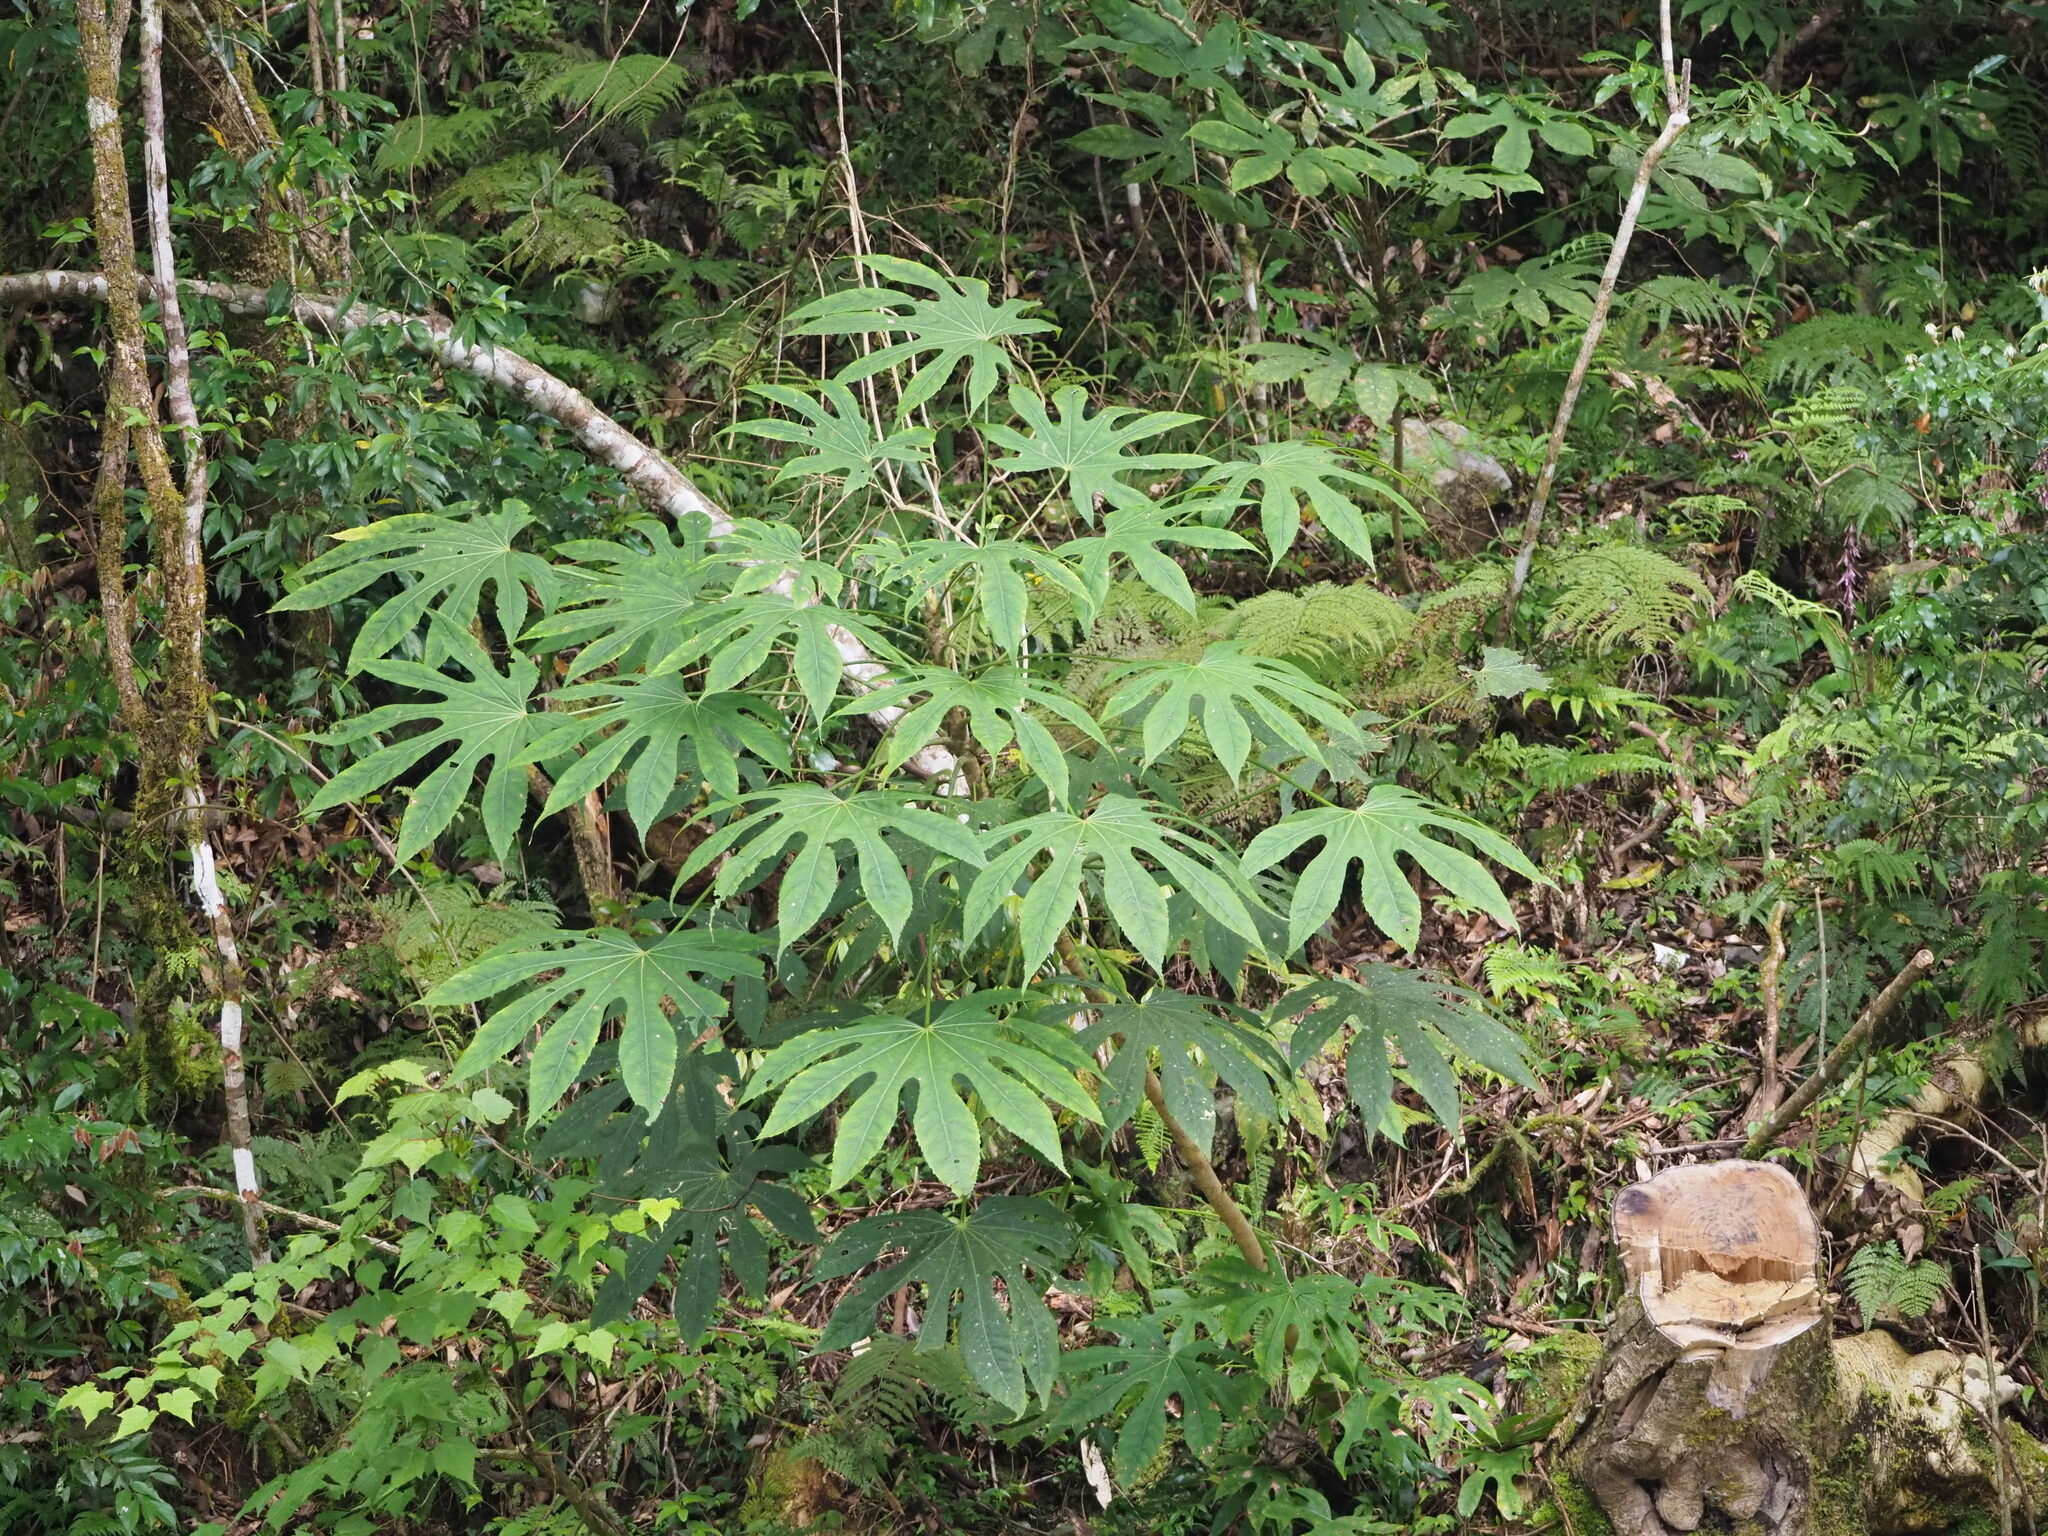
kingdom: Plantae
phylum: Tracheophyta
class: Magnoliopsida
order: Apiales
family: Araliaceae
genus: Fatsia
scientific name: Fatsia polycarpa
